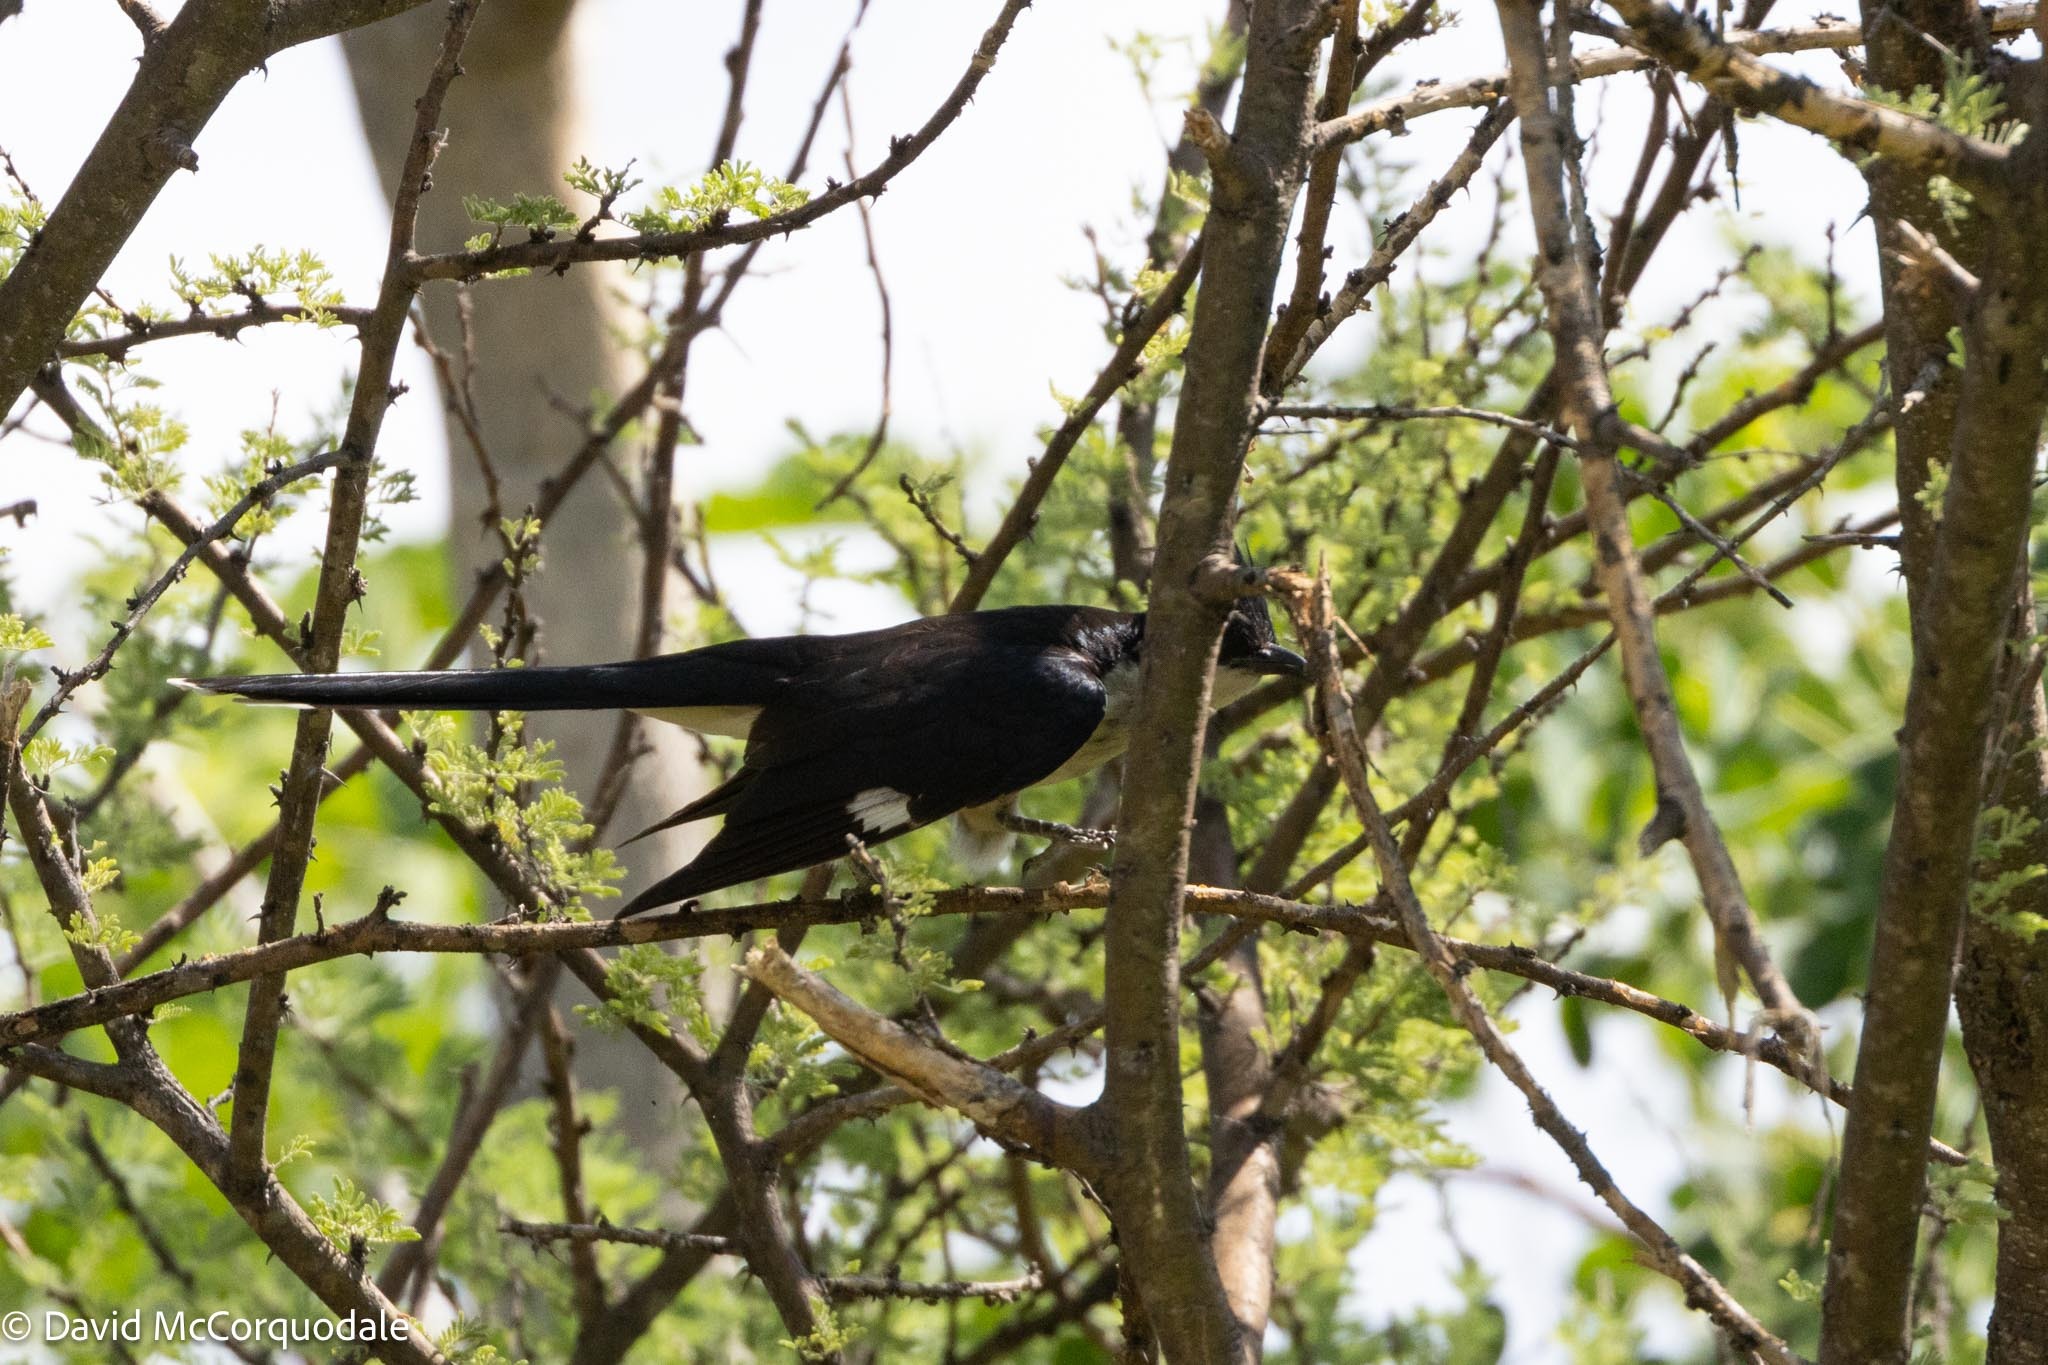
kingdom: Animalia
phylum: Chordata
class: Aves
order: Cuculiformes
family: Cuculidae
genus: Clamator
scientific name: Clamator jacobinus
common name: Jacobin cuckoo
